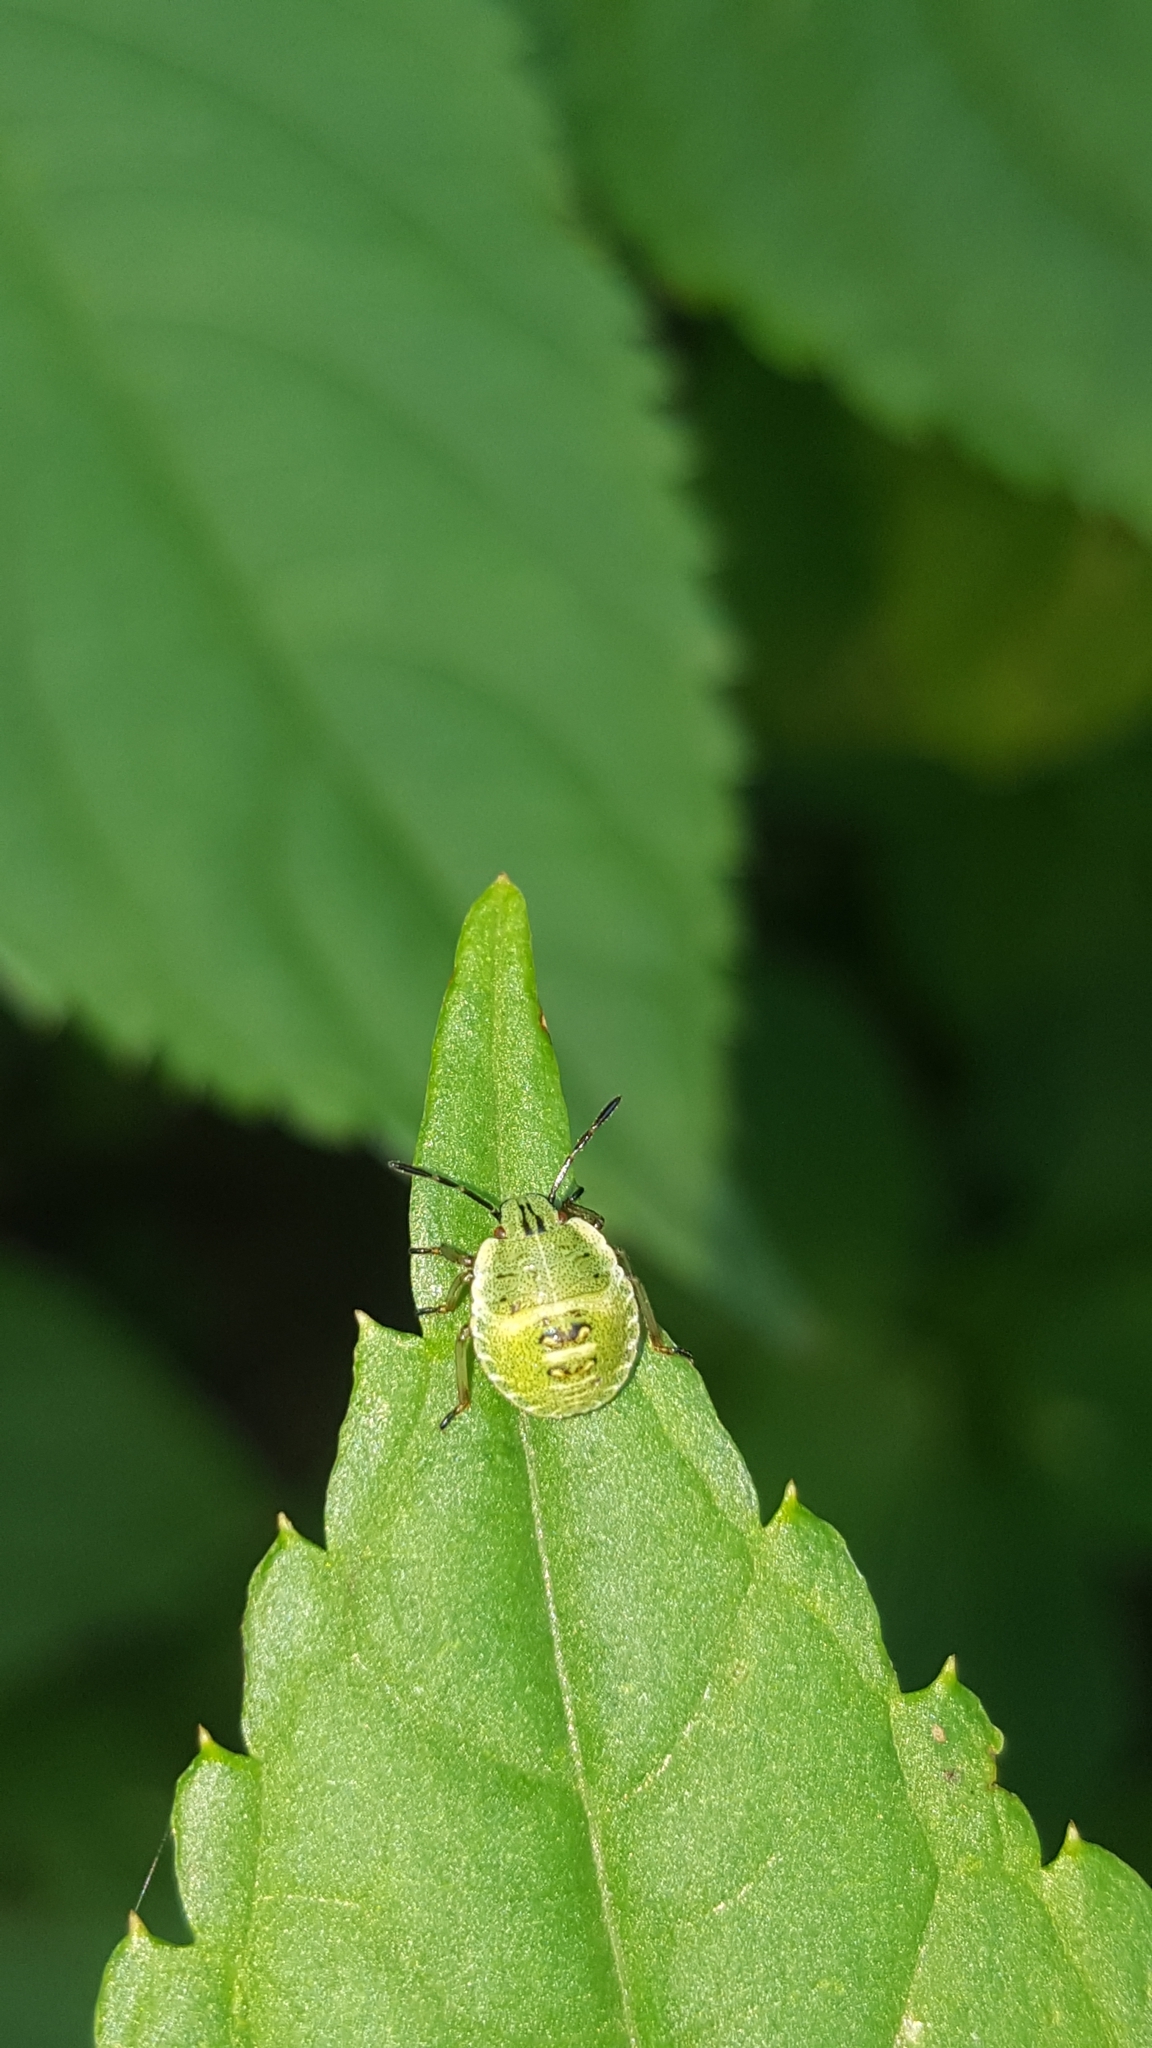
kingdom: Animalia
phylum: Arthropoda
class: Insecta
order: Hemiptera
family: Pentatomidae
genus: Palomena
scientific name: Palomena prasina
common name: Green shieldbug
